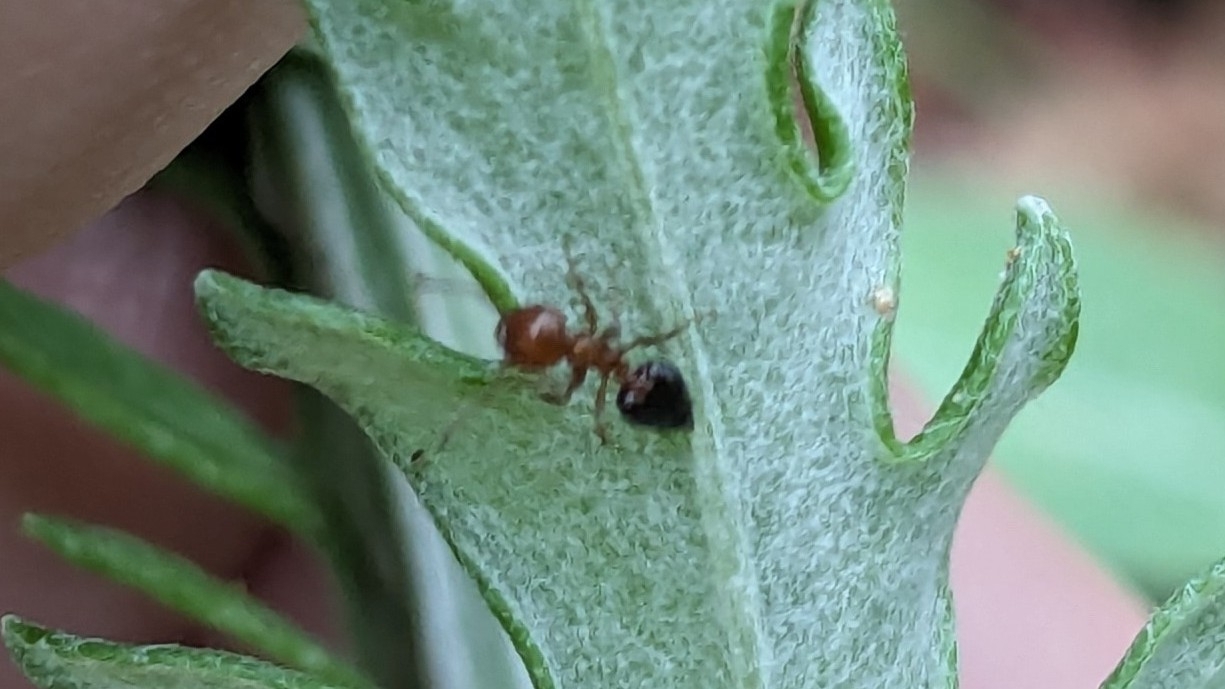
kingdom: Animalia
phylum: Arthropoda
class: Insecta
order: Hymenoptera
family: Formicidae
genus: Crematogaster
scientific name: Crematogaster laeviuscula
